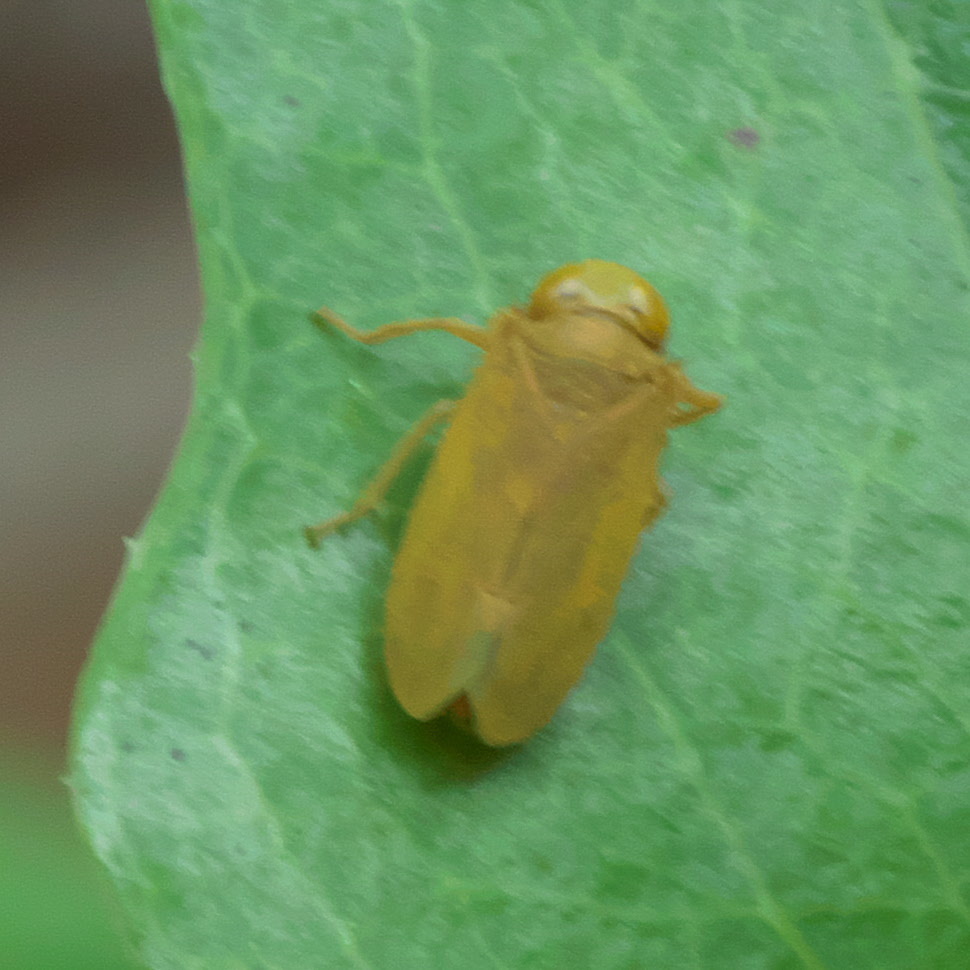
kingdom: Animalia
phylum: Arthropoda
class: Insecta
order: Hemiptera
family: Cicadellidae
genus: Jikradia
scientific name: Jikradia olitoria
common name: Coppery leafhopper
